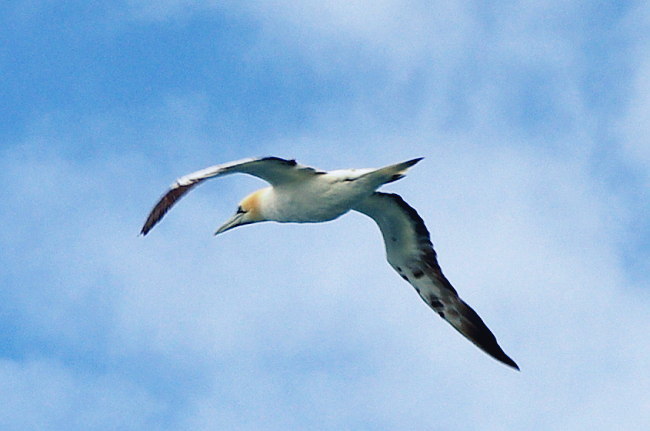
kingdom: Animalia
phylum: Chordata
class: Aves
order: Suliformes
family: Sulidae
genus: Morus
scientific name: Morus bassanus
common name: Northern gannet
